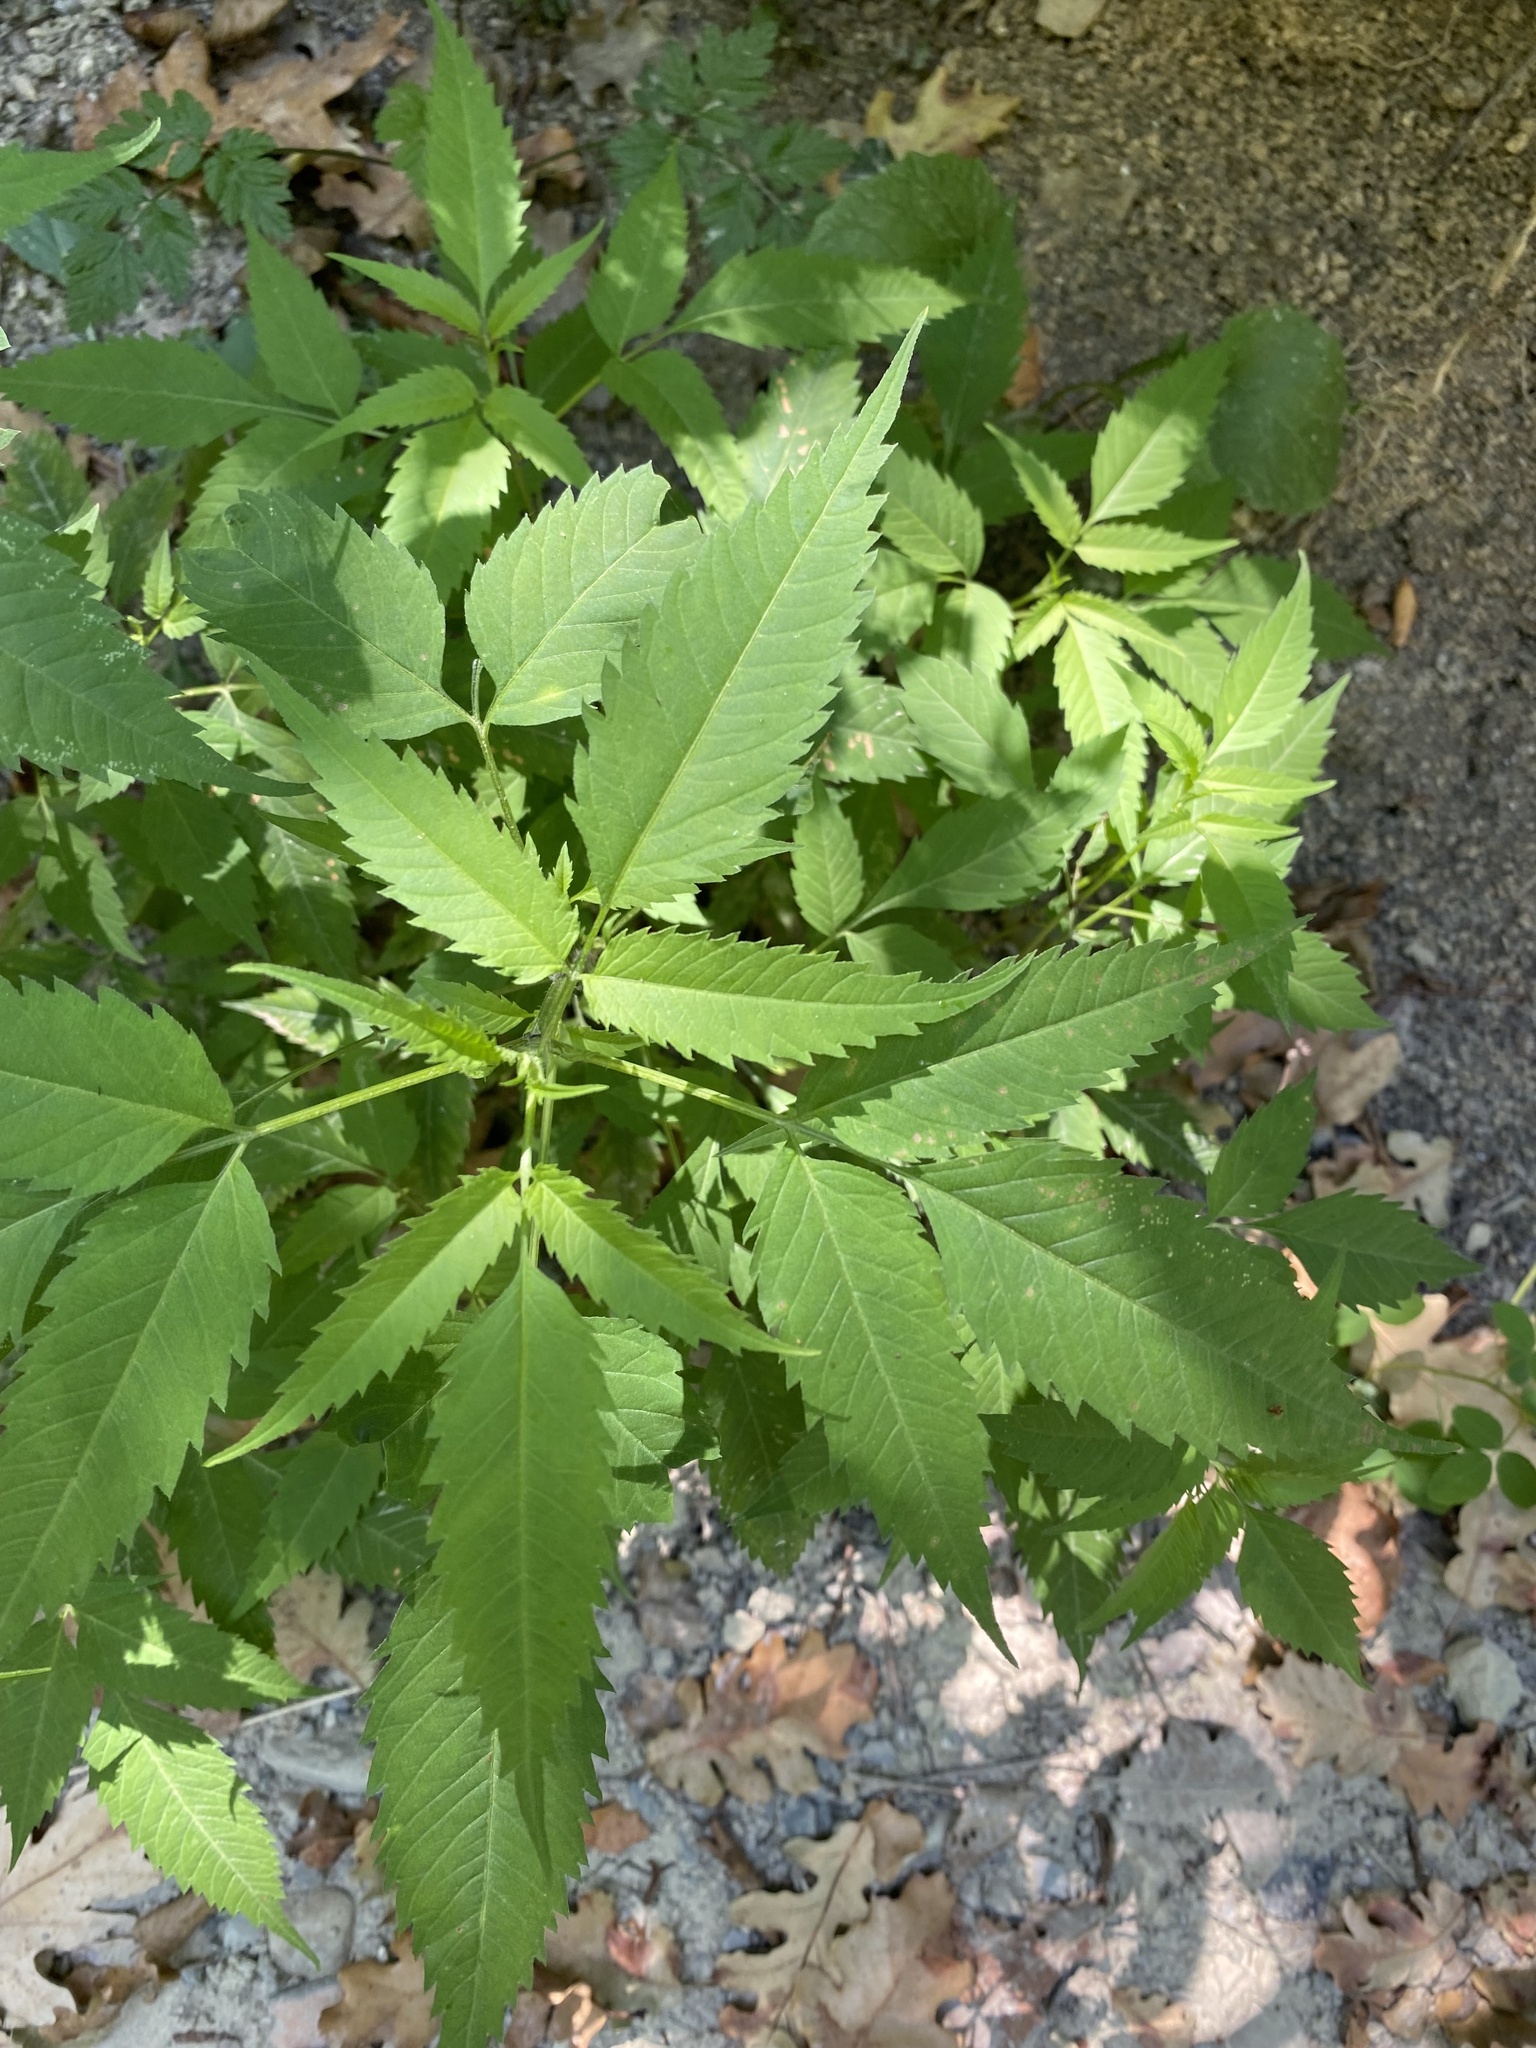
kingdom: Plantae
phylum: Tracheophyta
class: Magnoliopsida
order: Asterales
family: Asteraceae
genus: Bidens
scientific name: Bidens frondosa
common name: Beggarticks
